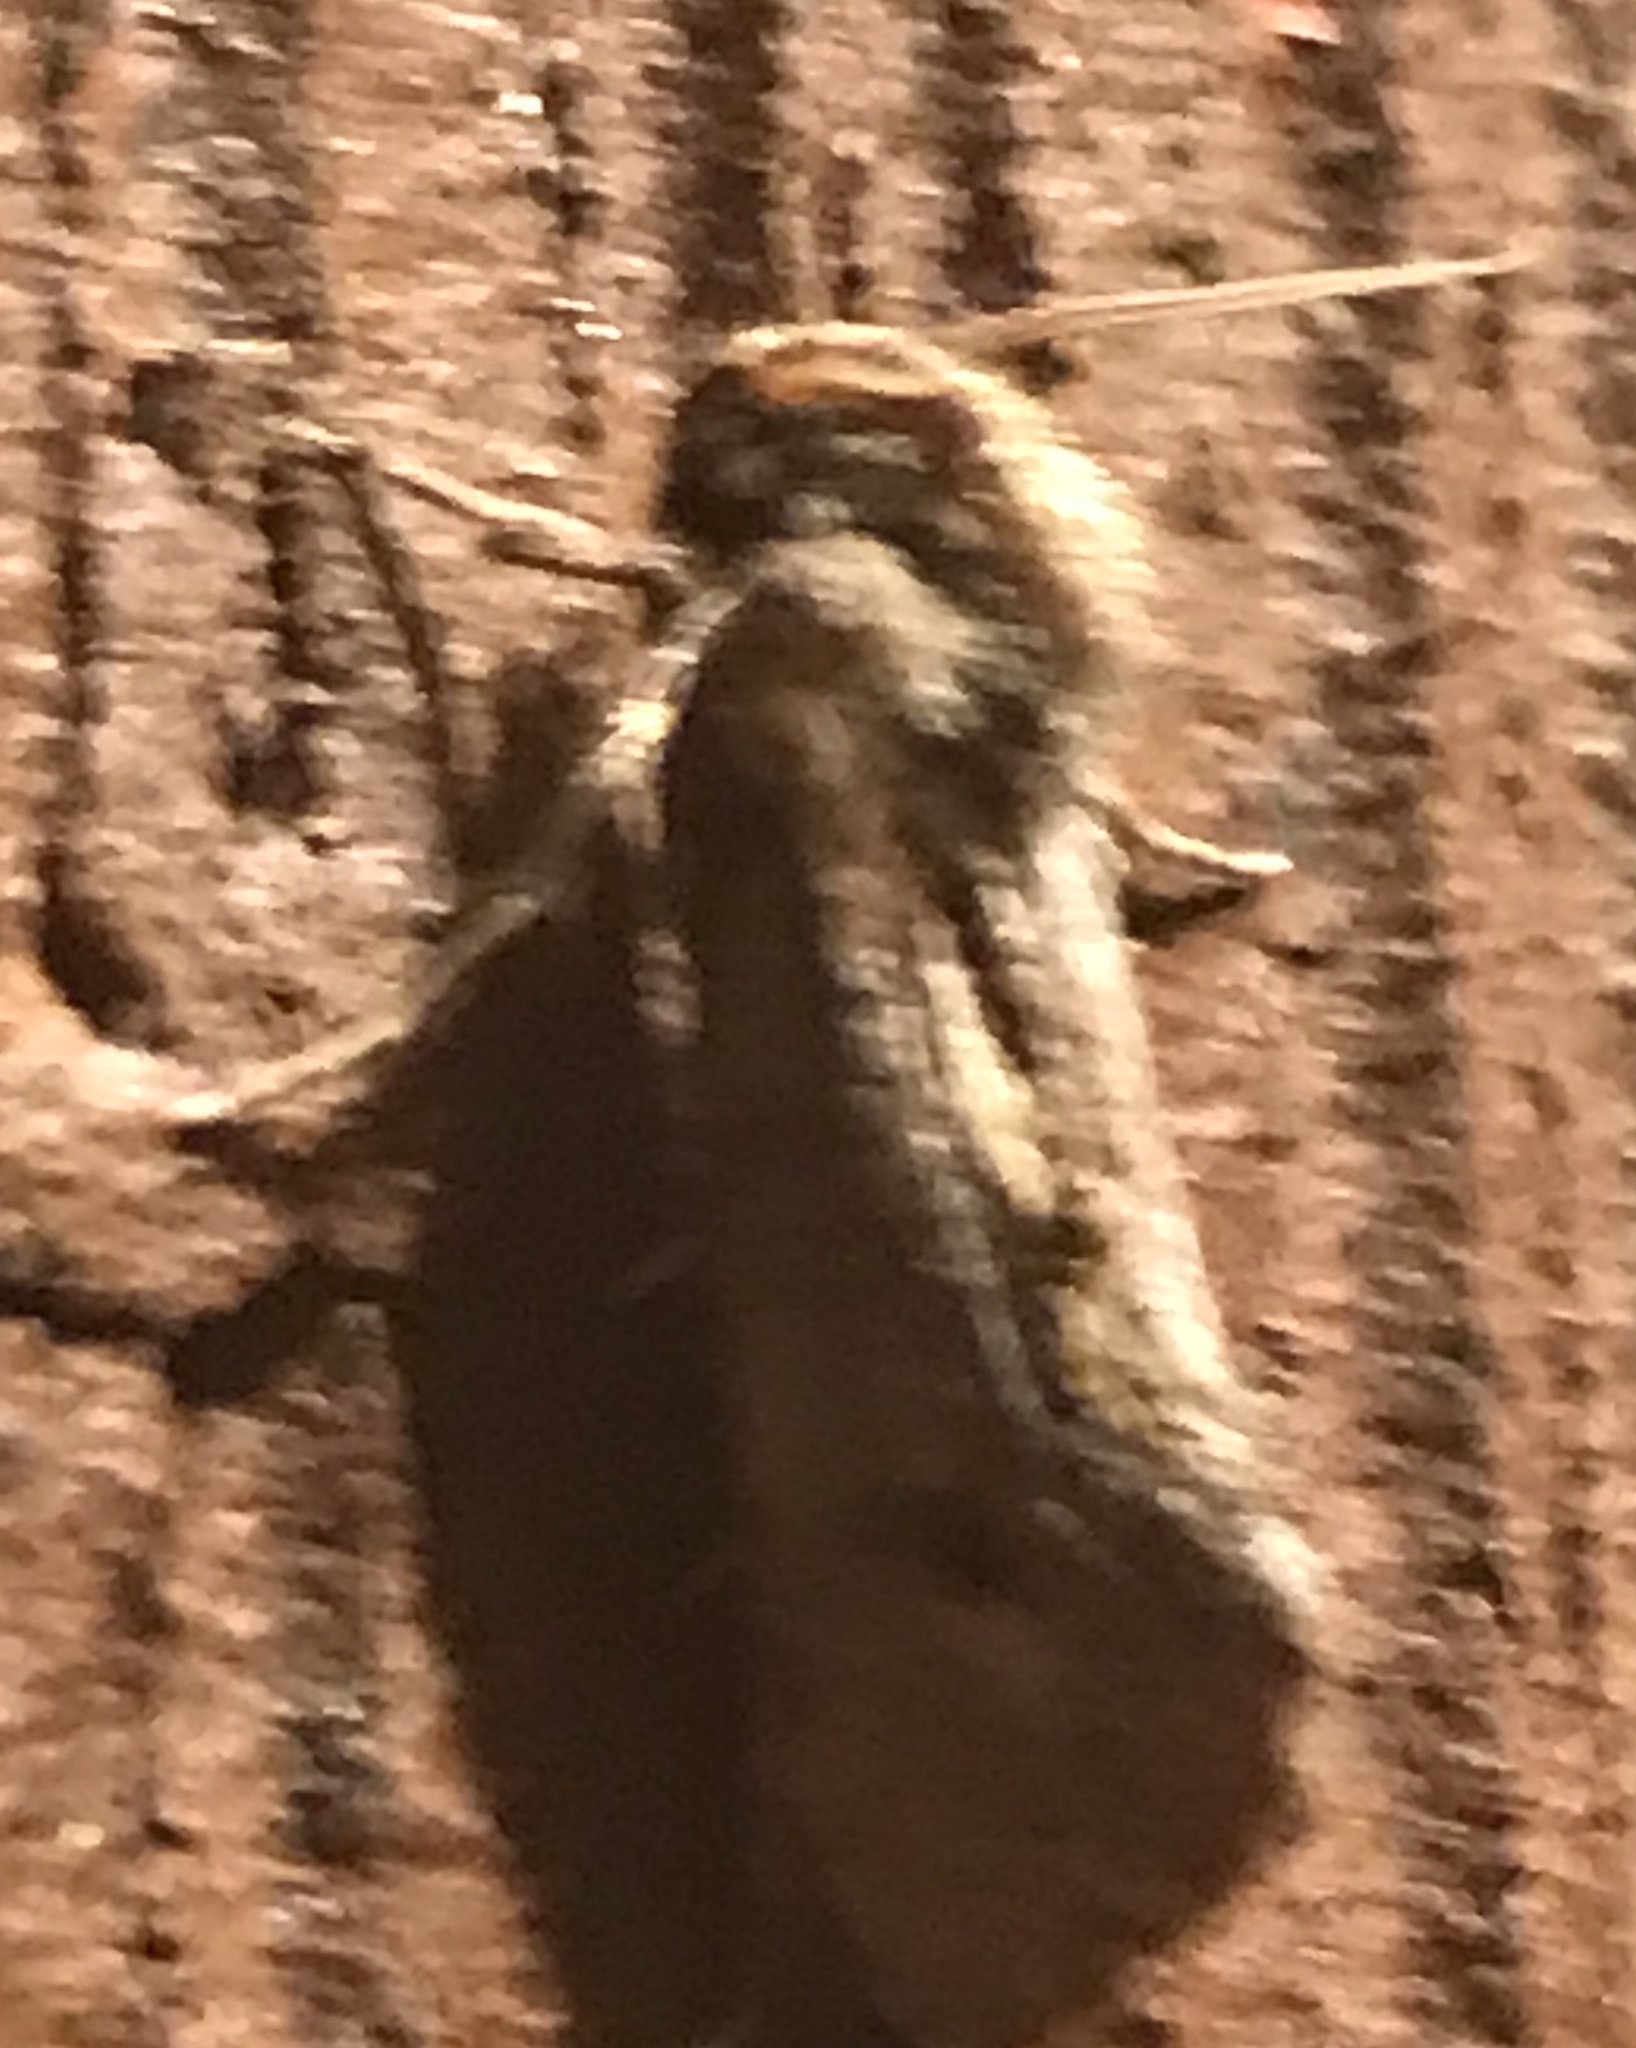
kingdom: Animalia
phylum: Arthropoda
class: Insecta
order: Lepidoptera
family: Tineidae
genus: Acrolophus
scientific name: Acrolophus popeanella
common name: Clemens' grass tubeworm moth
